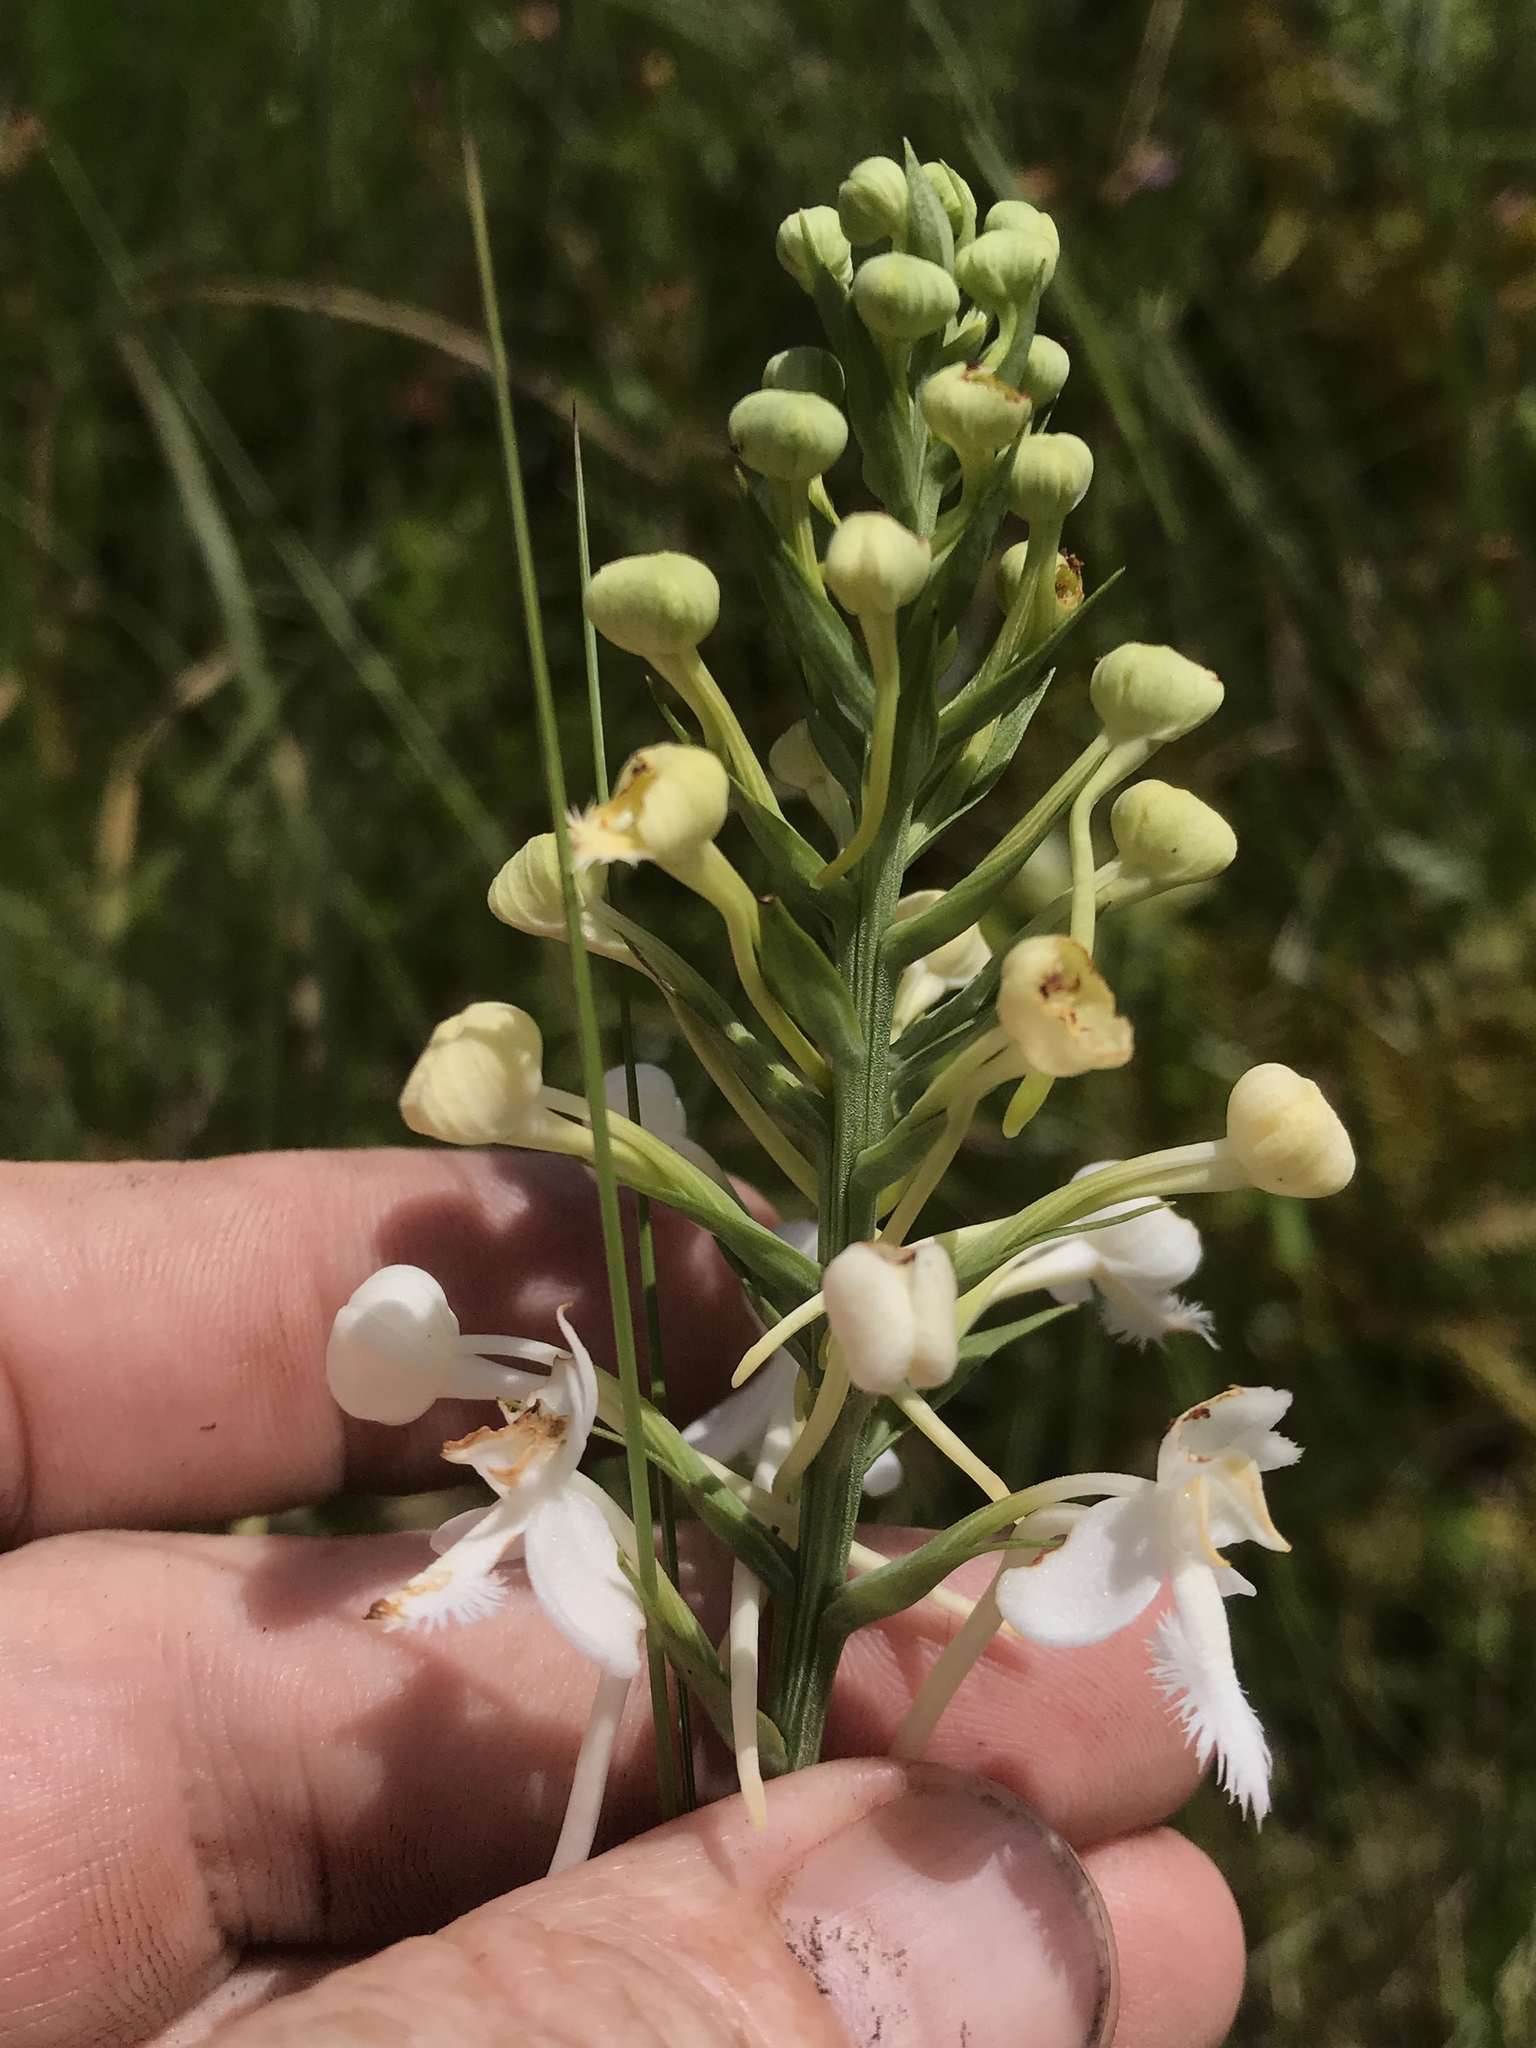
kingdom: Plantae
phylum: Tracheophyta
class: Liliopsida
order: Asparagales
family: Orchidaceae
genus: Platanthera
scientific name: Platanthera blephariglottis
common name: White fringed orchid
